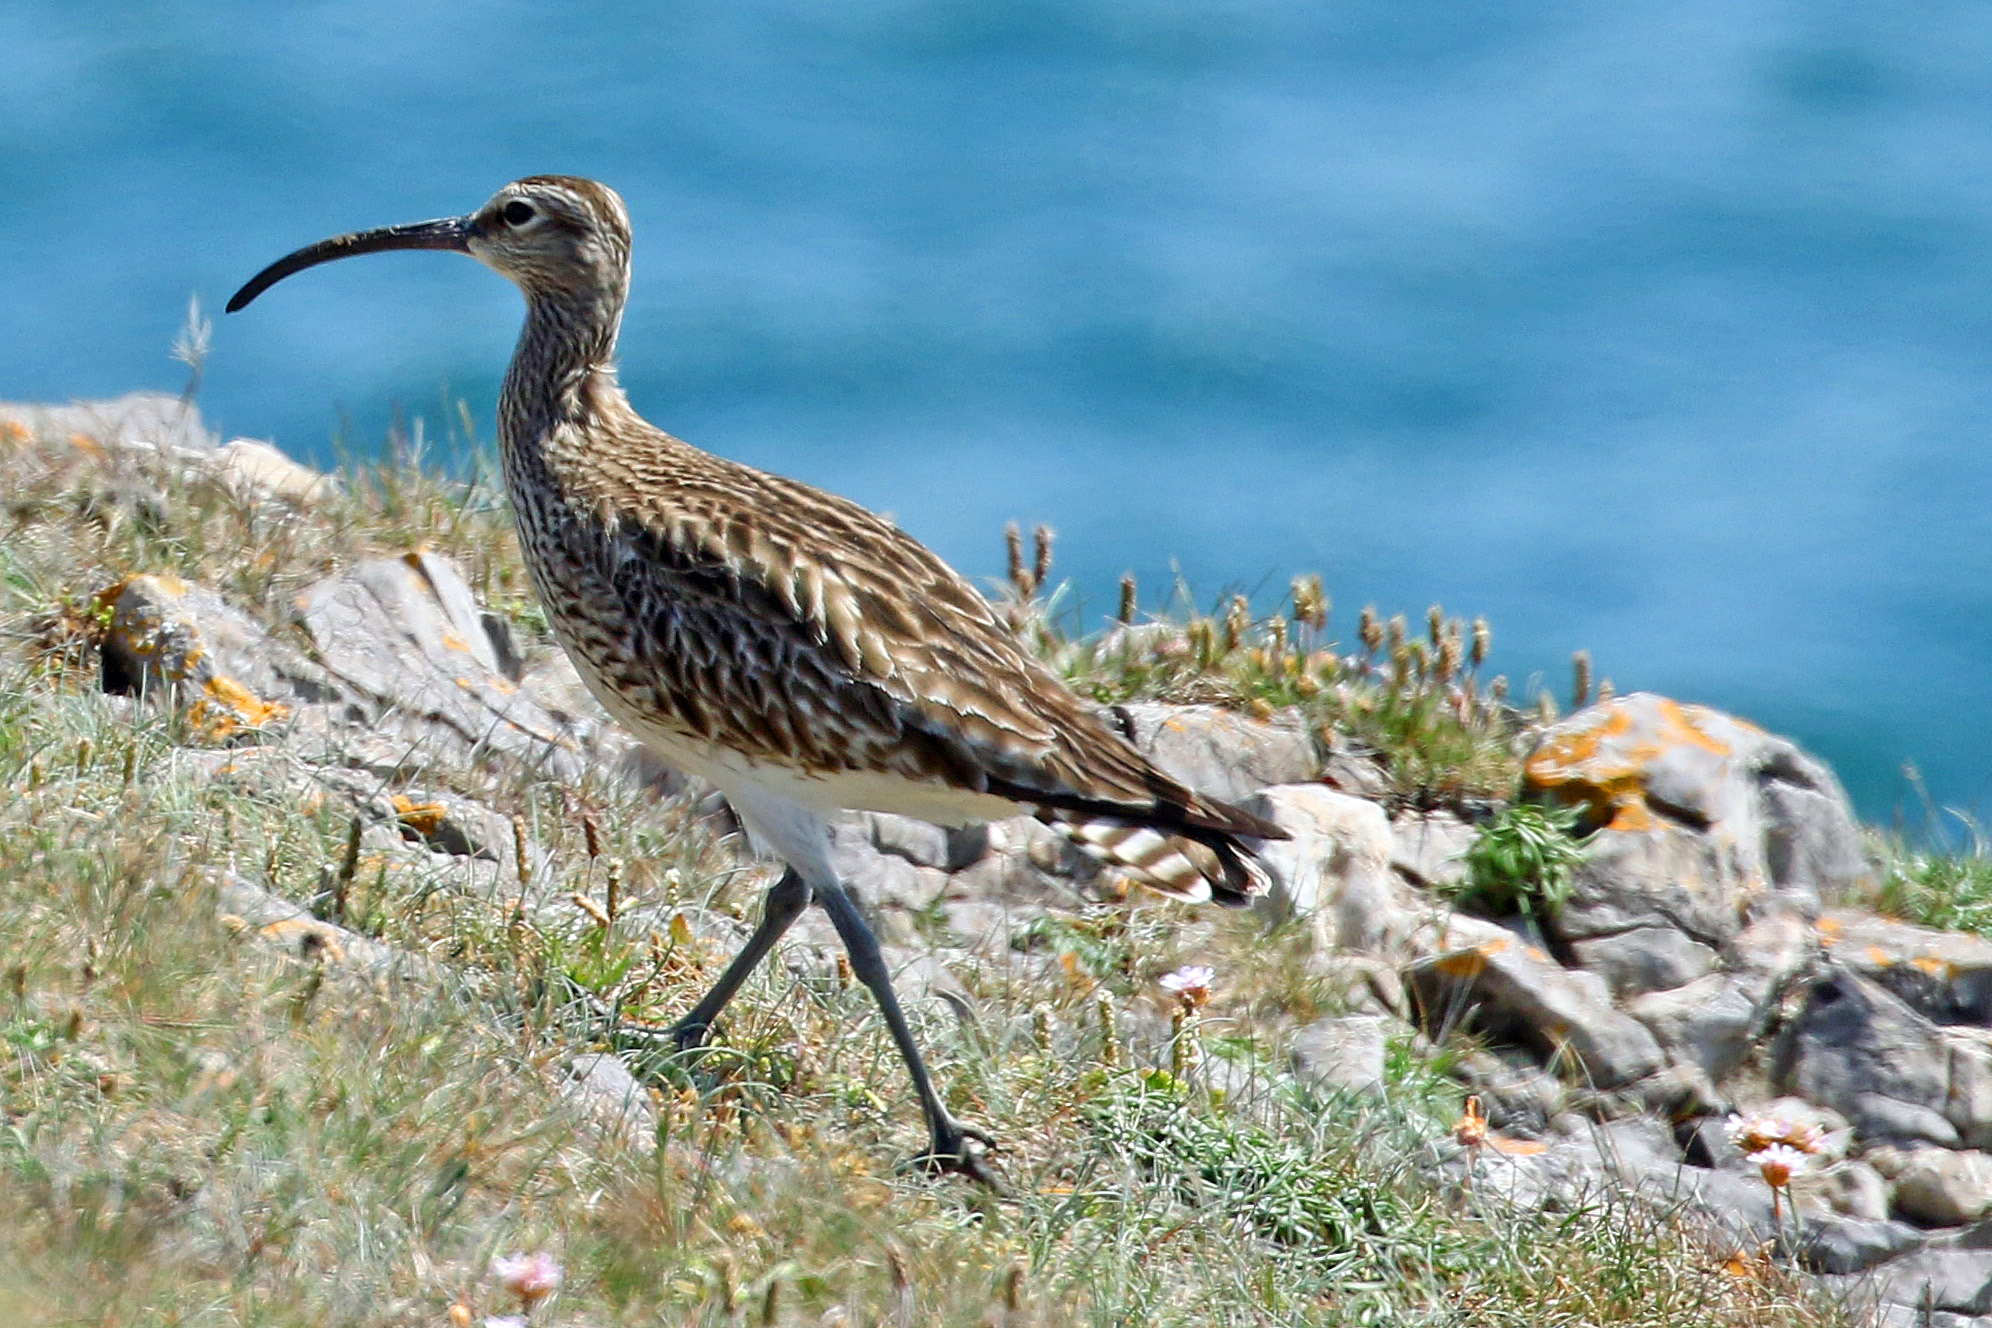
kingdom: Animalia
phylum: Chordata
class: Aves
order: Charadriiformes
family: Scolopacidae
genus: Numenius
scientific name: Numenius phaeopus
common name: Whimbrel
